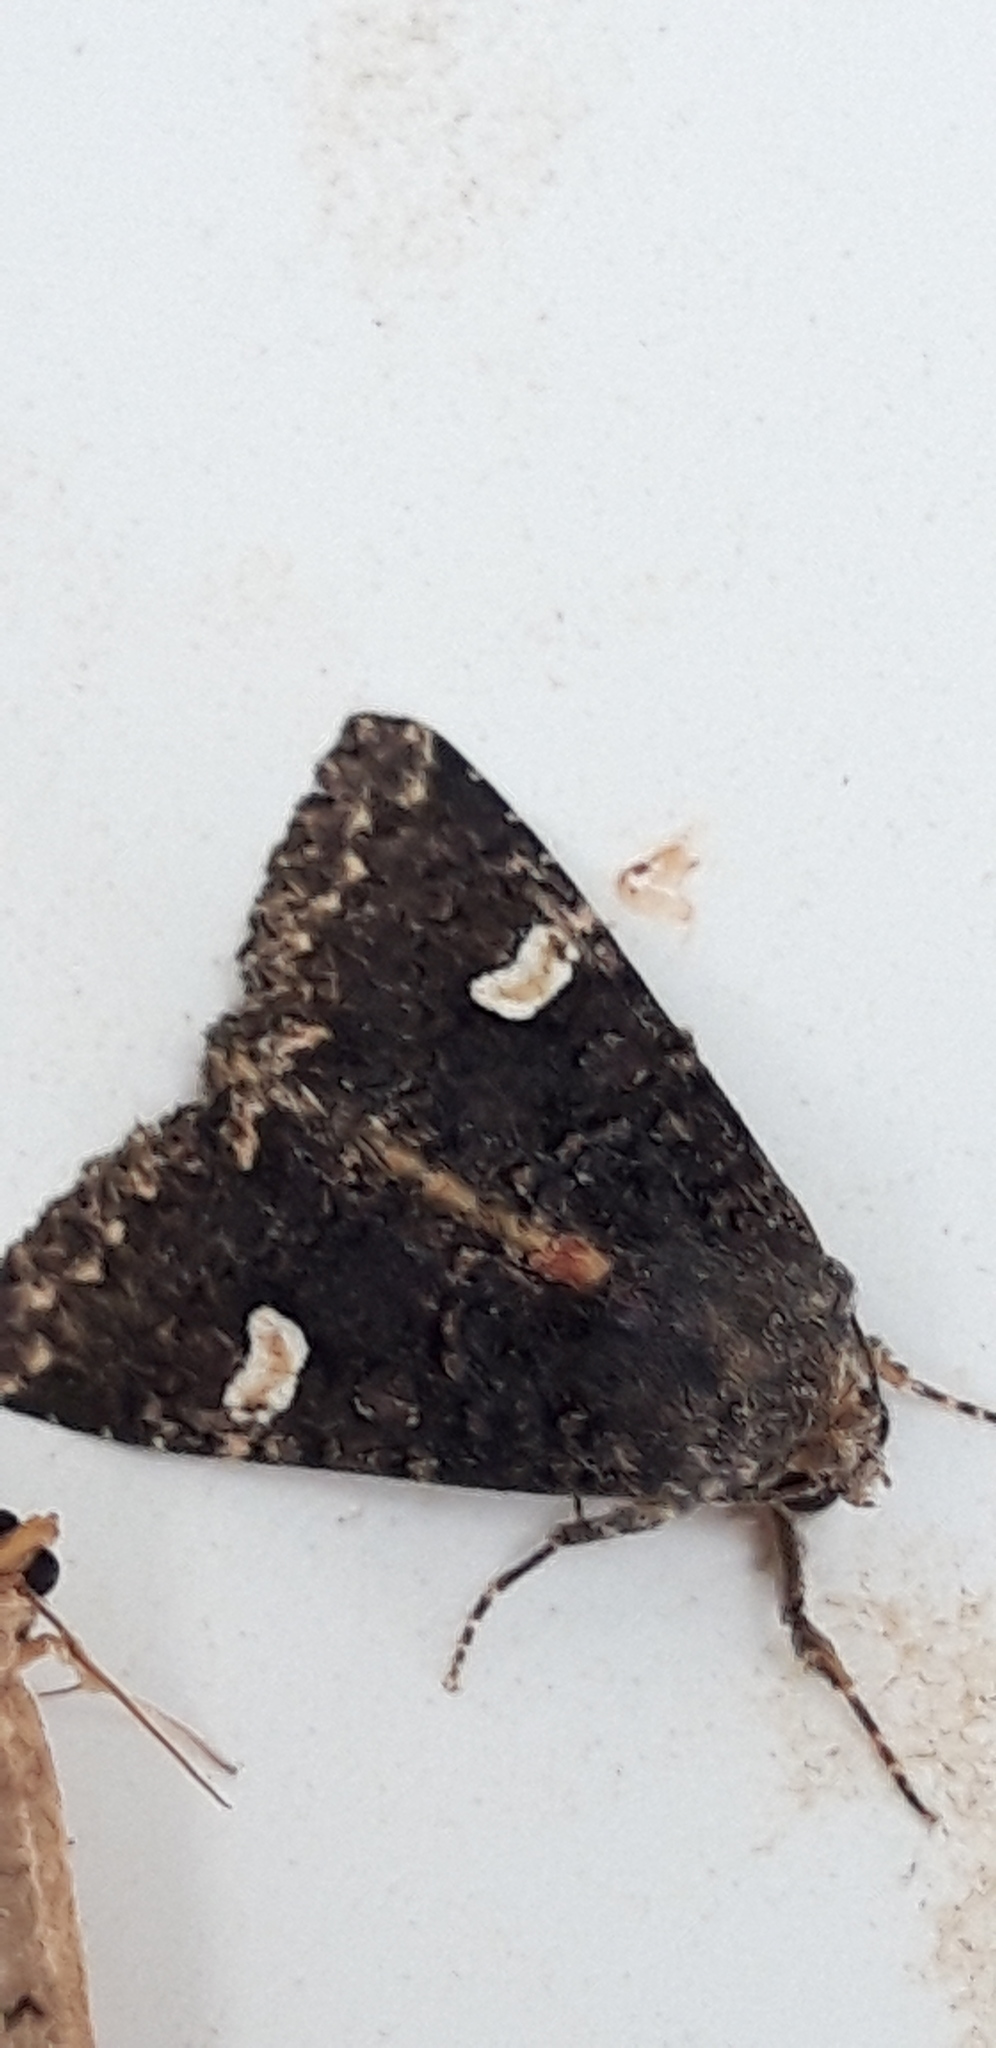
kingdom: Animalia
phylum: Arthropoda
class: Insecta
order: Lepidoptera
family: Noctuidae
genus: Melanchra
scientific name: Melanchra persicariae
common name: Dot moth
